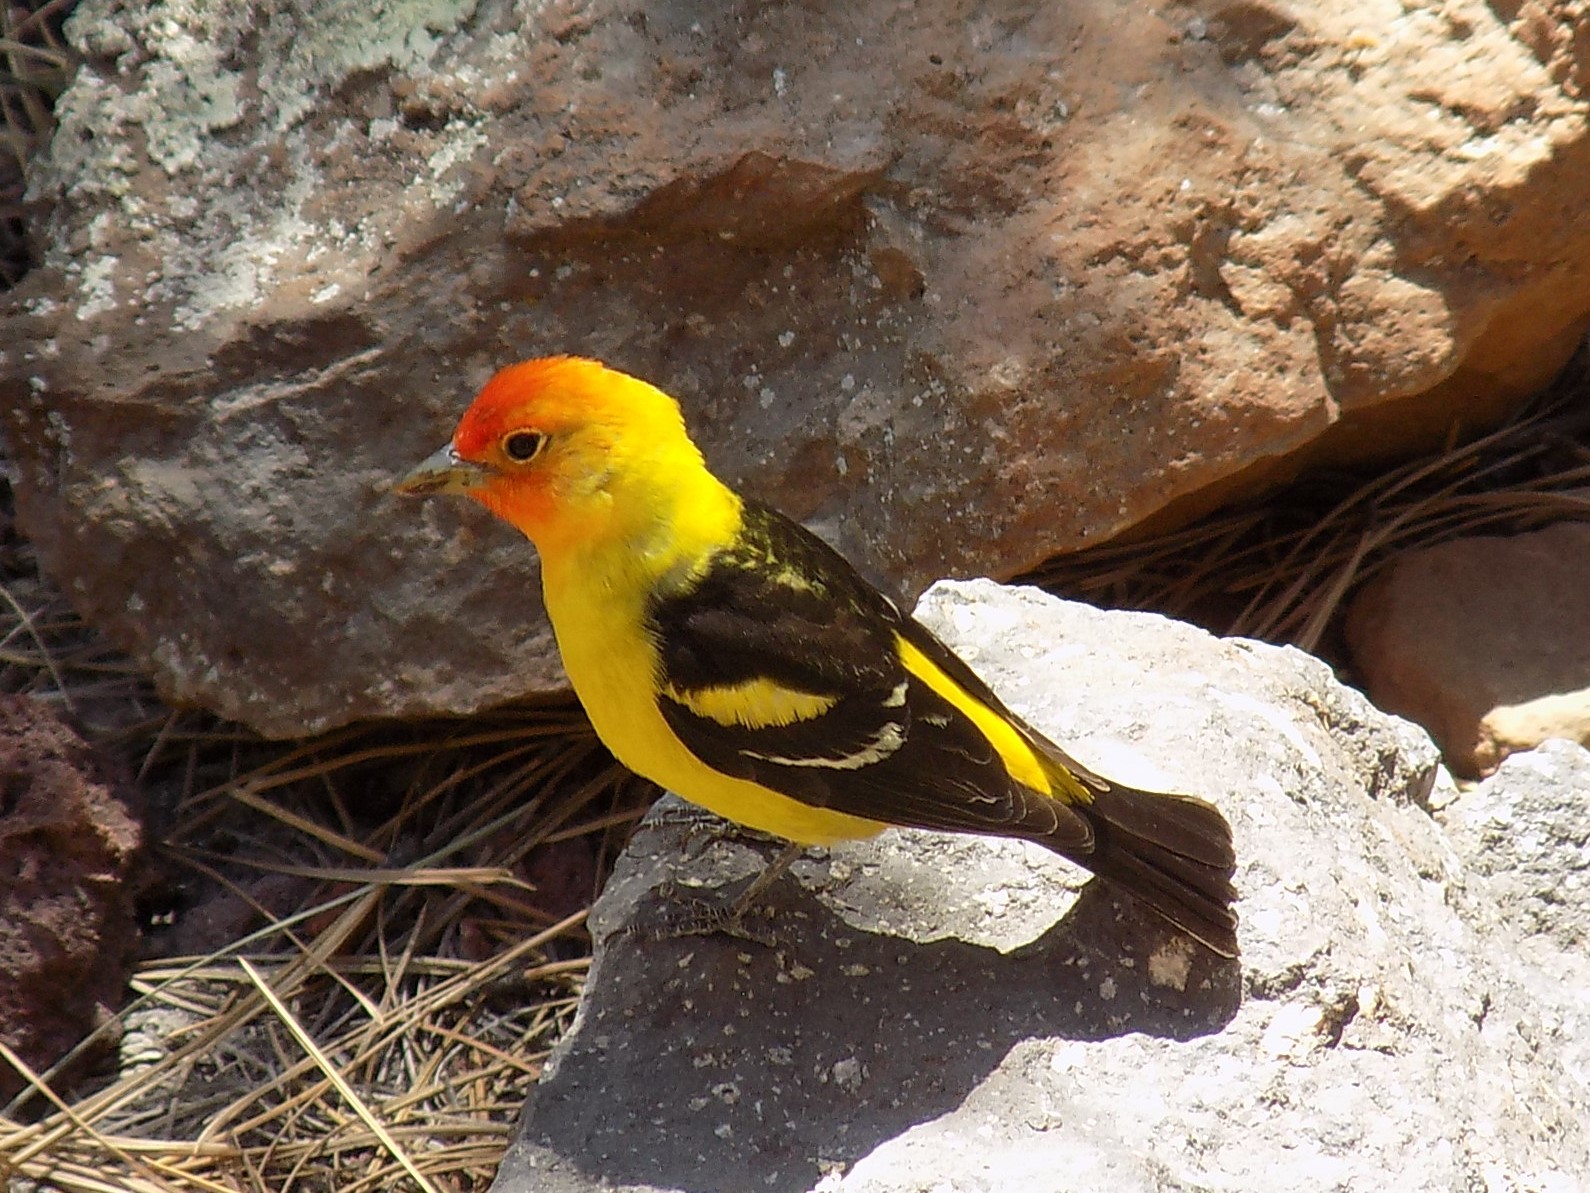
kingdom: Animalia
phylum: Chordata
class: Aves
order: Passeriformes
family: Cardinalidae
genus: Piranga
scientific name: Piranga ludoviciana
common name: Western tanager
